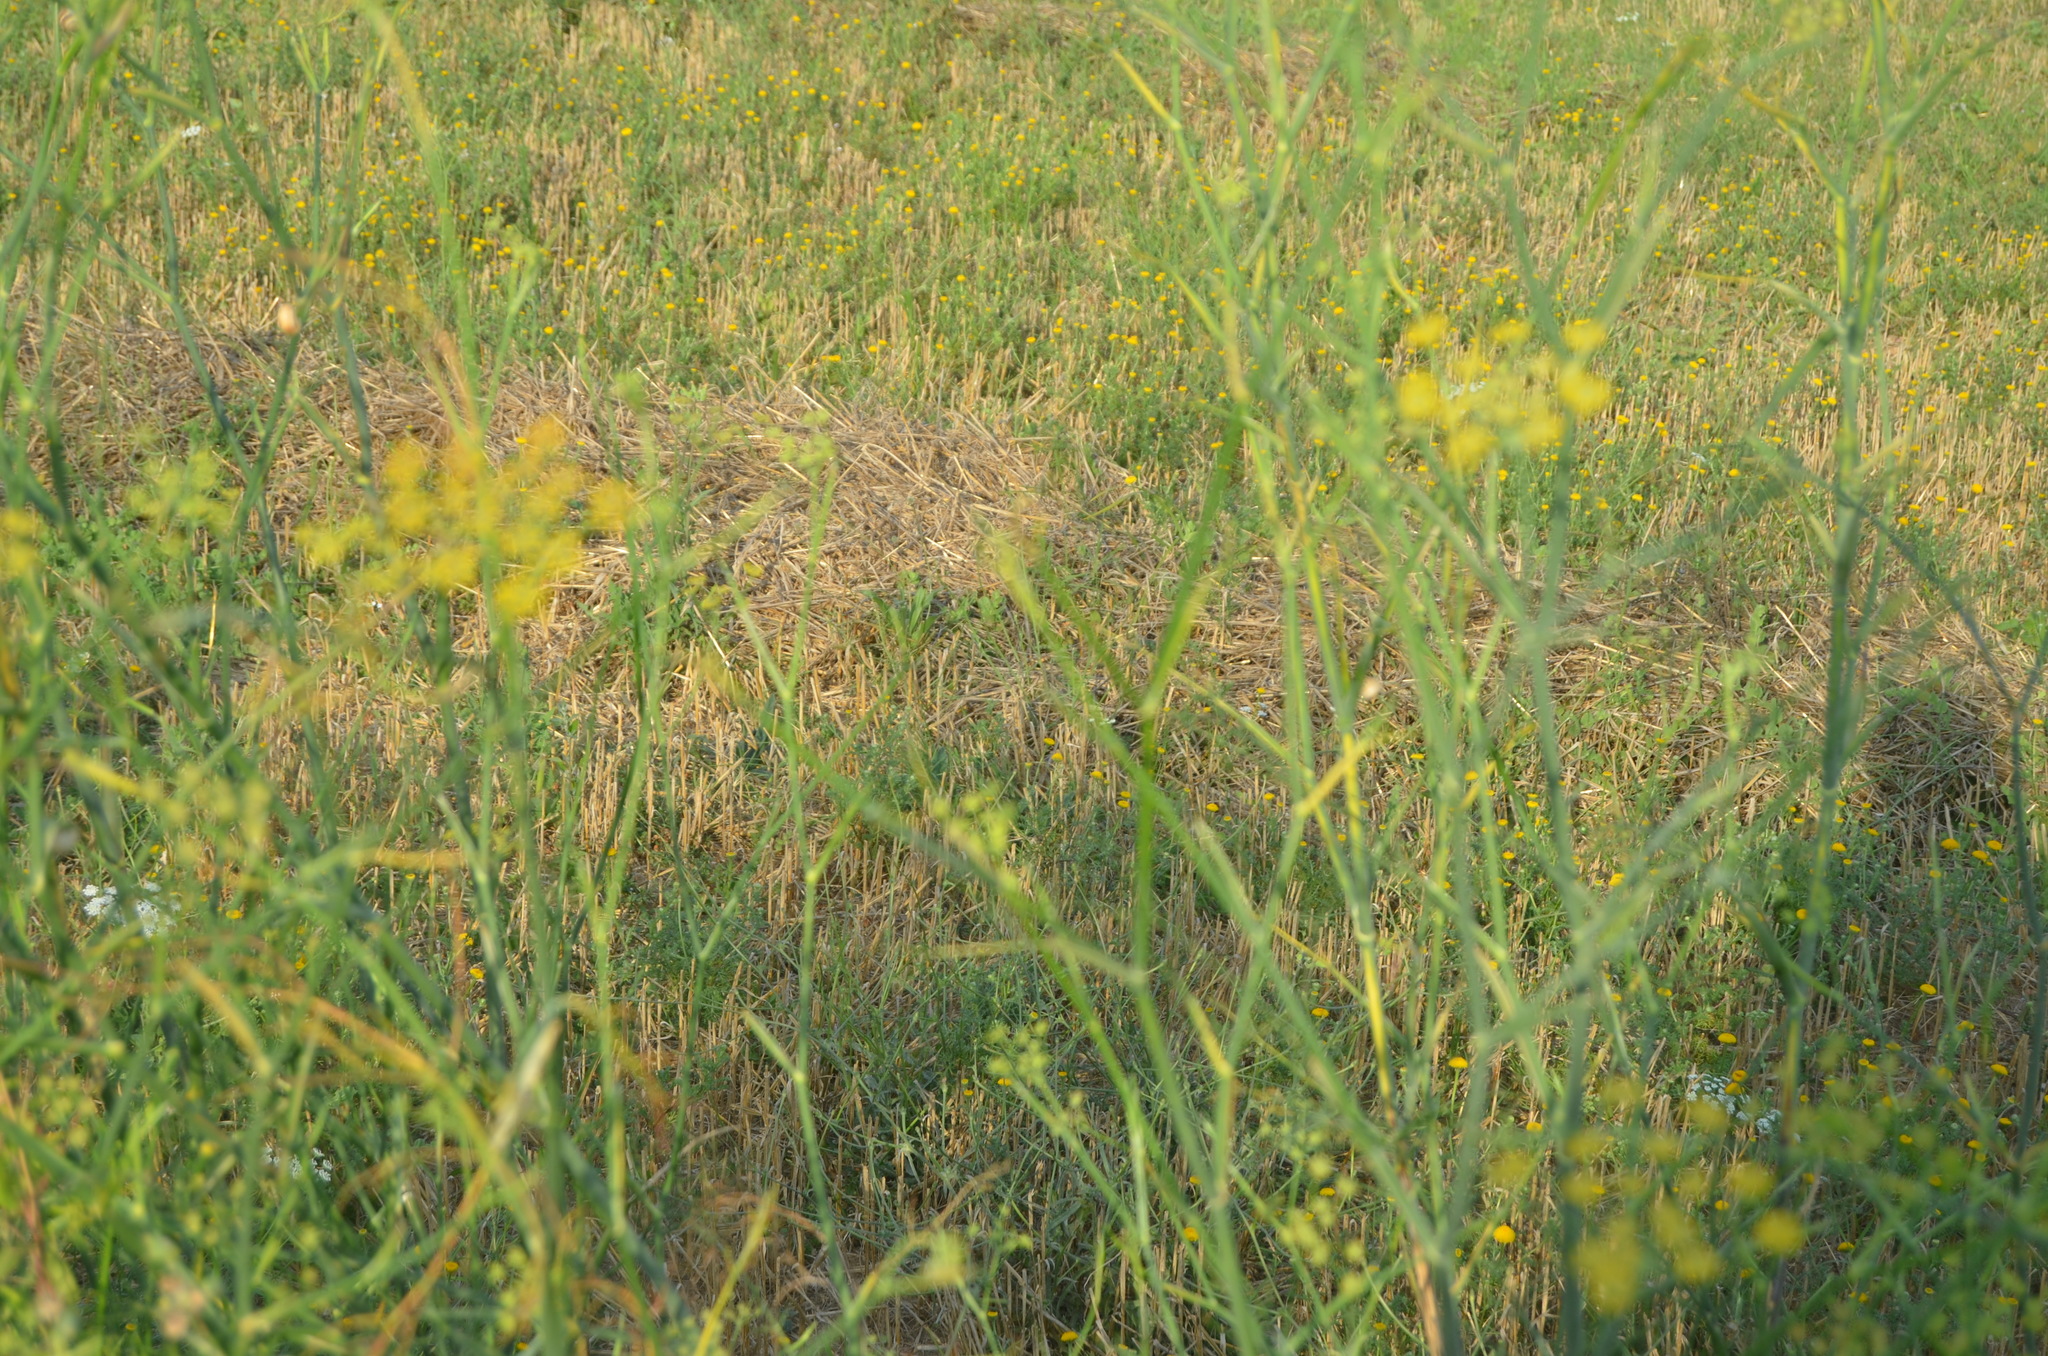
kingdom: Plantae
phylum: Tracheophyta
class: Magnoliopsida
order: Apiales
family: Apiaceae
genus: Foeniculum
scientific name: Foeniculum vulgare
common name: Fennel
